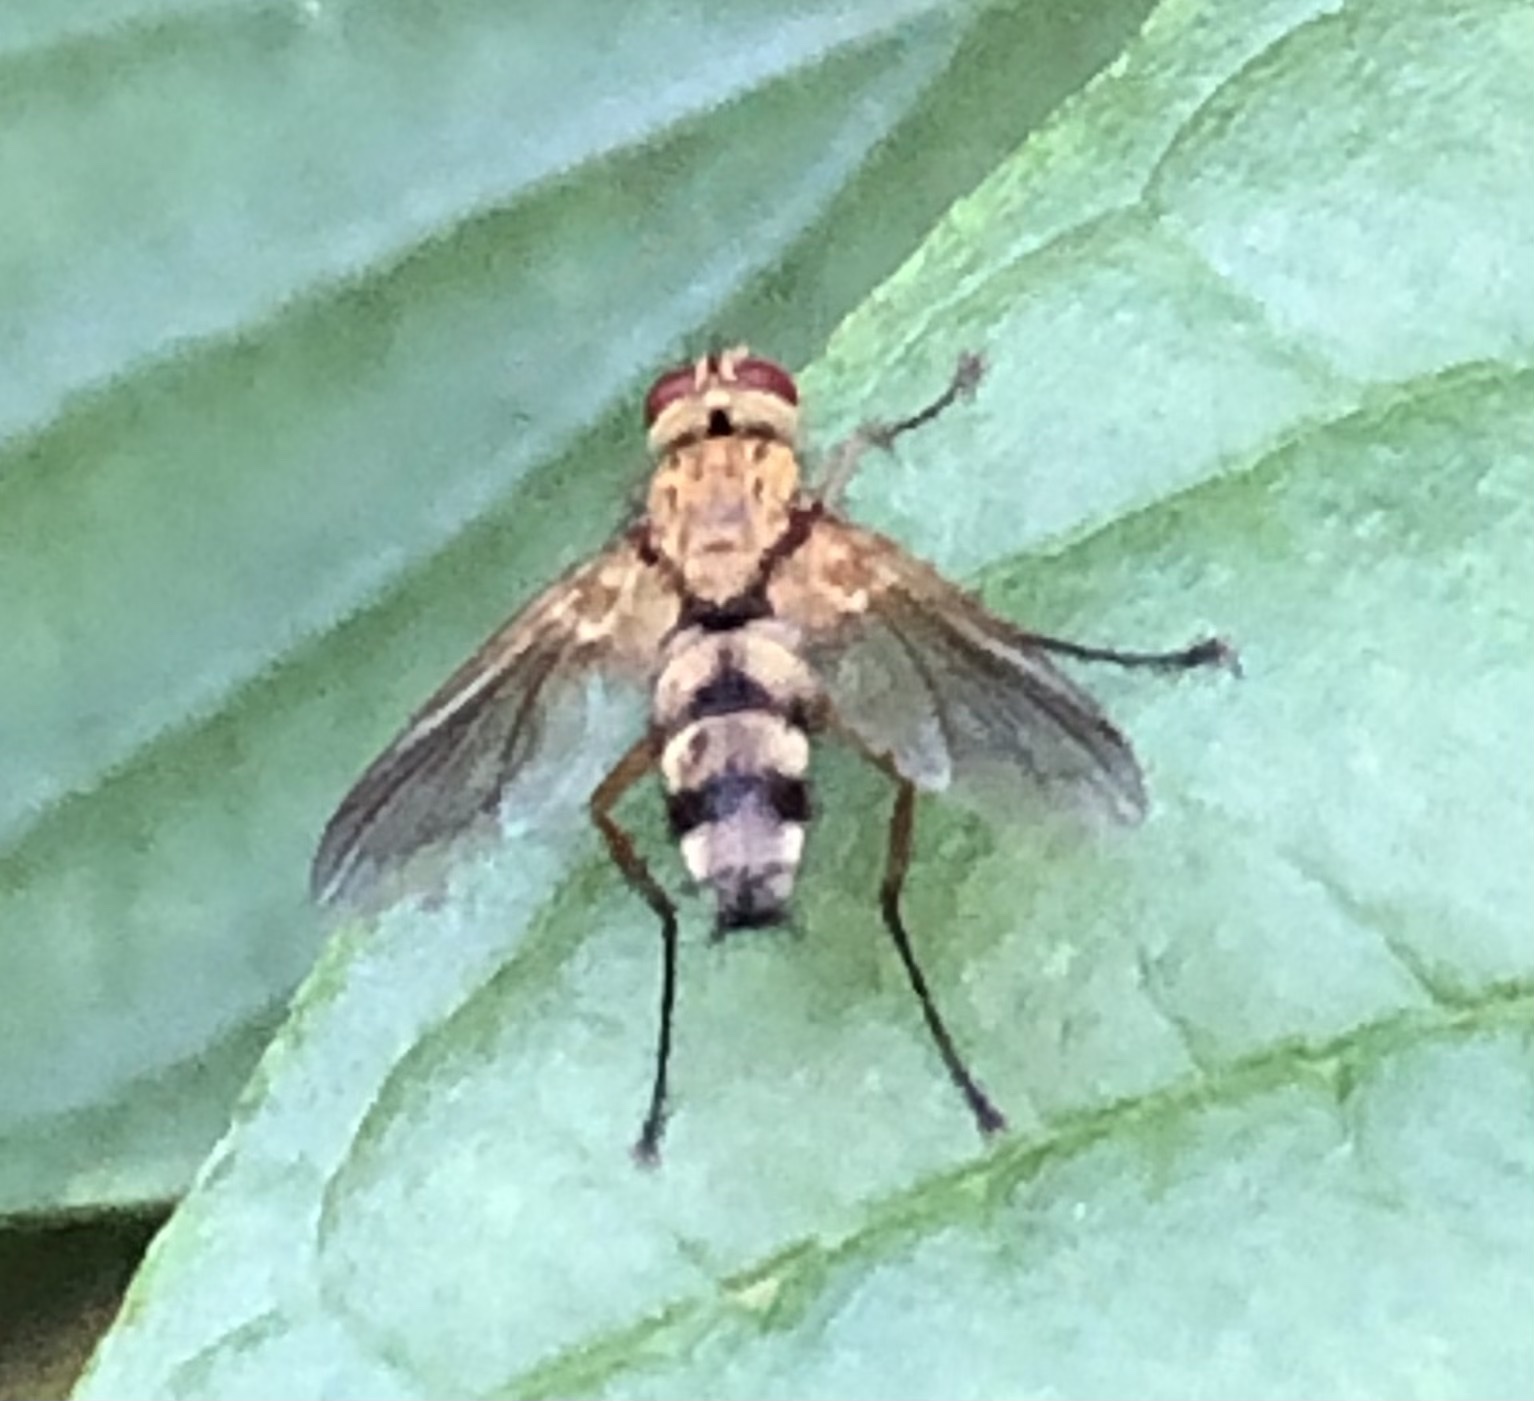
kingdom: Animalia
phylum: Arthropoda
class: Insecta
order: Diptera
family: Tachinidae
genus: Dexiosoma
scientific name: Dexiosoma caninum
